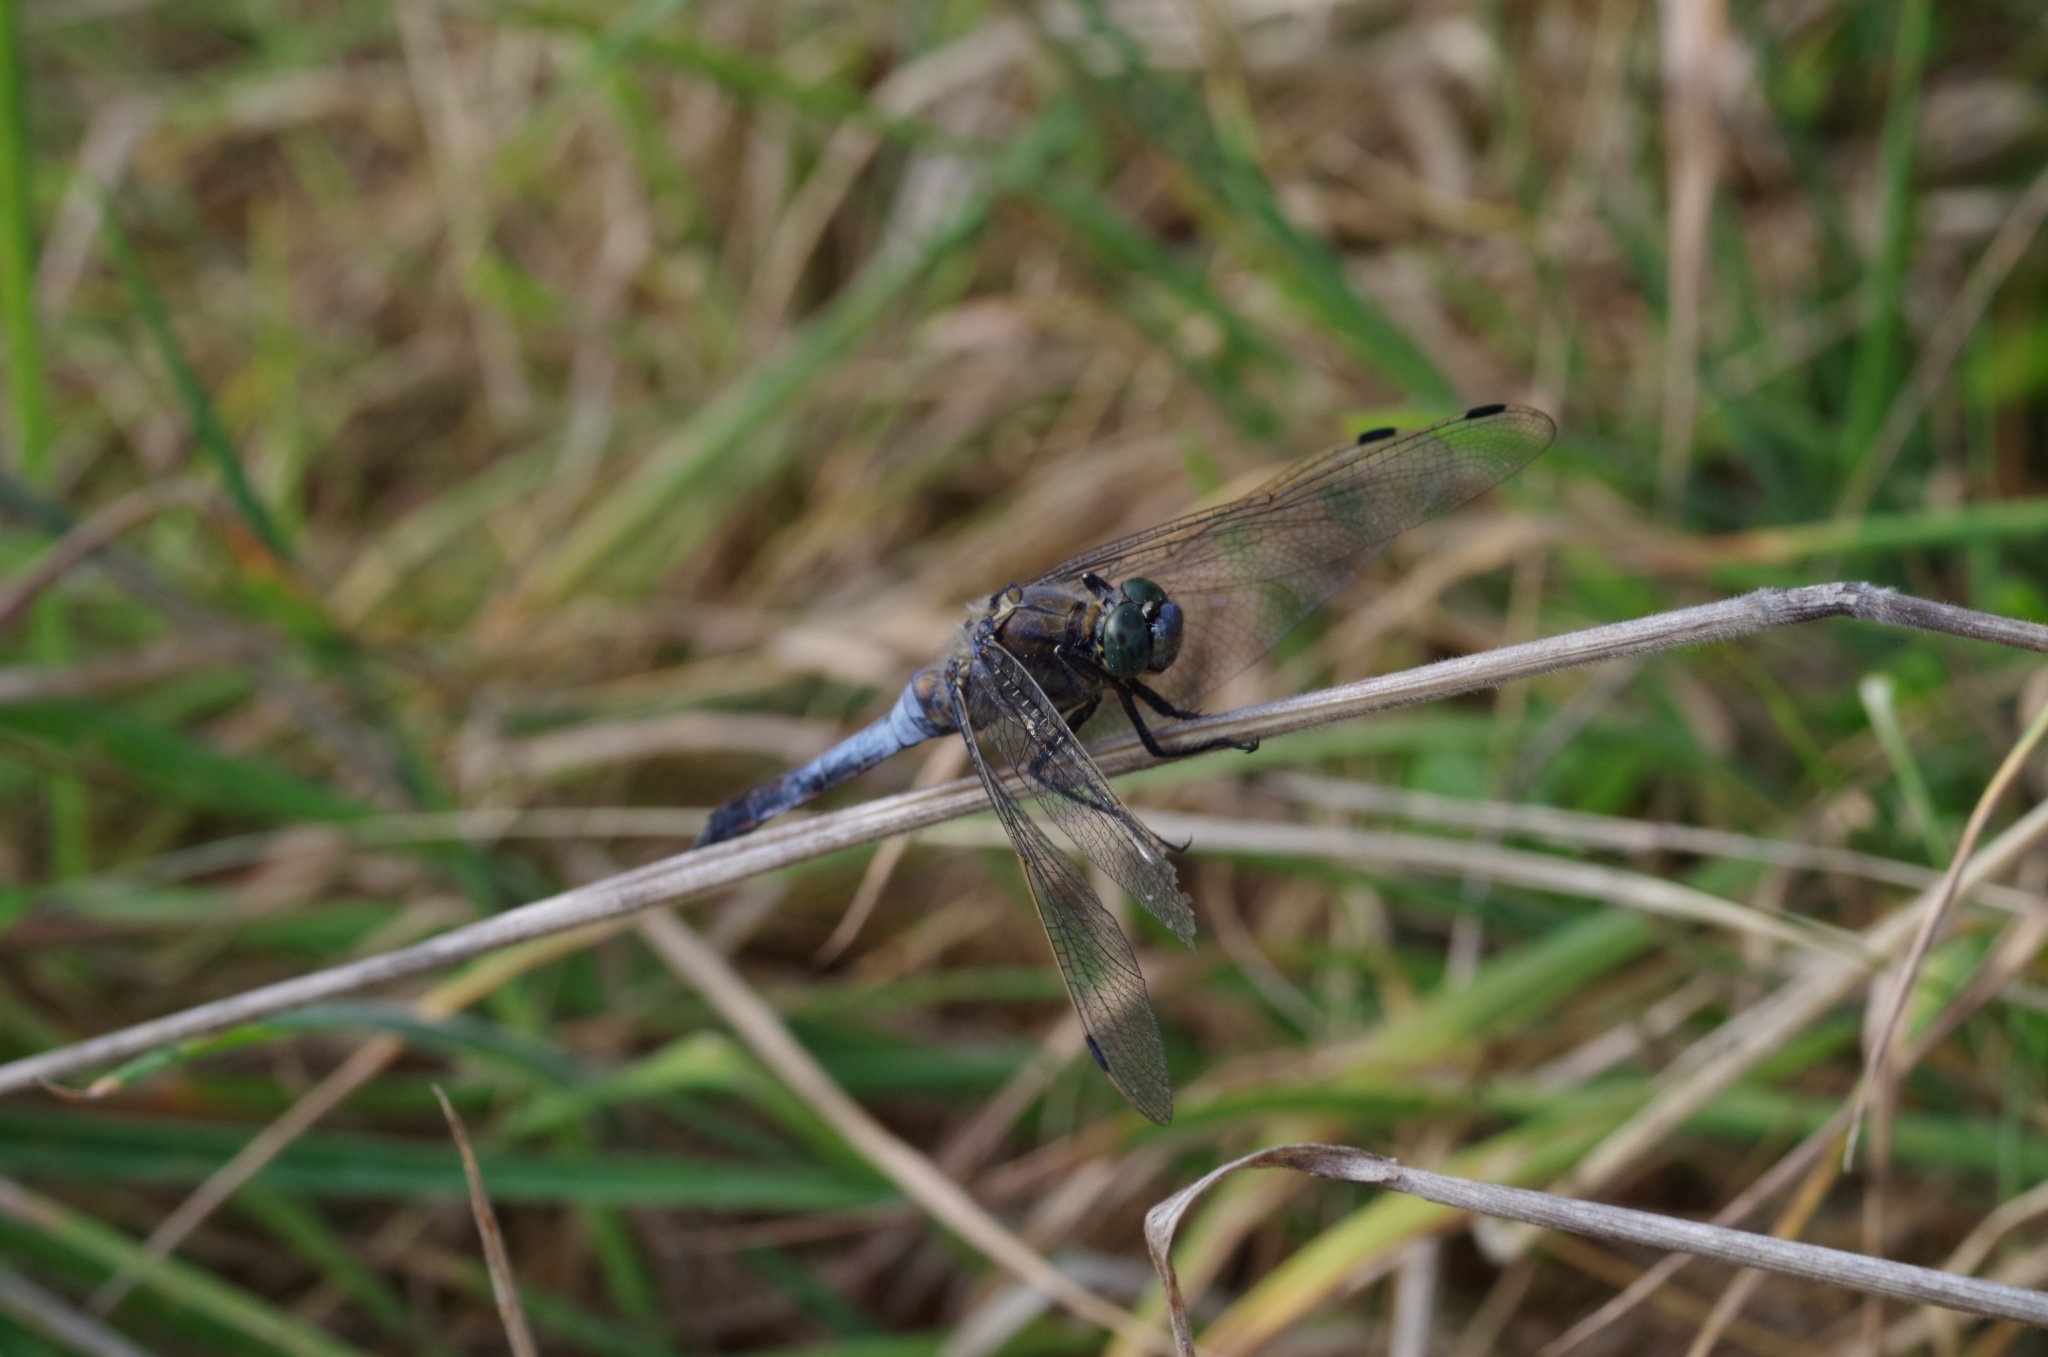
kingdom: Animalia
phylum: Arthropoda
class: Insecta
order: Odonata
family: Libellulidae
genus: Orthetrum
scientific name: Orthetrum cancellatum
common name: Black-tailed skimmer
